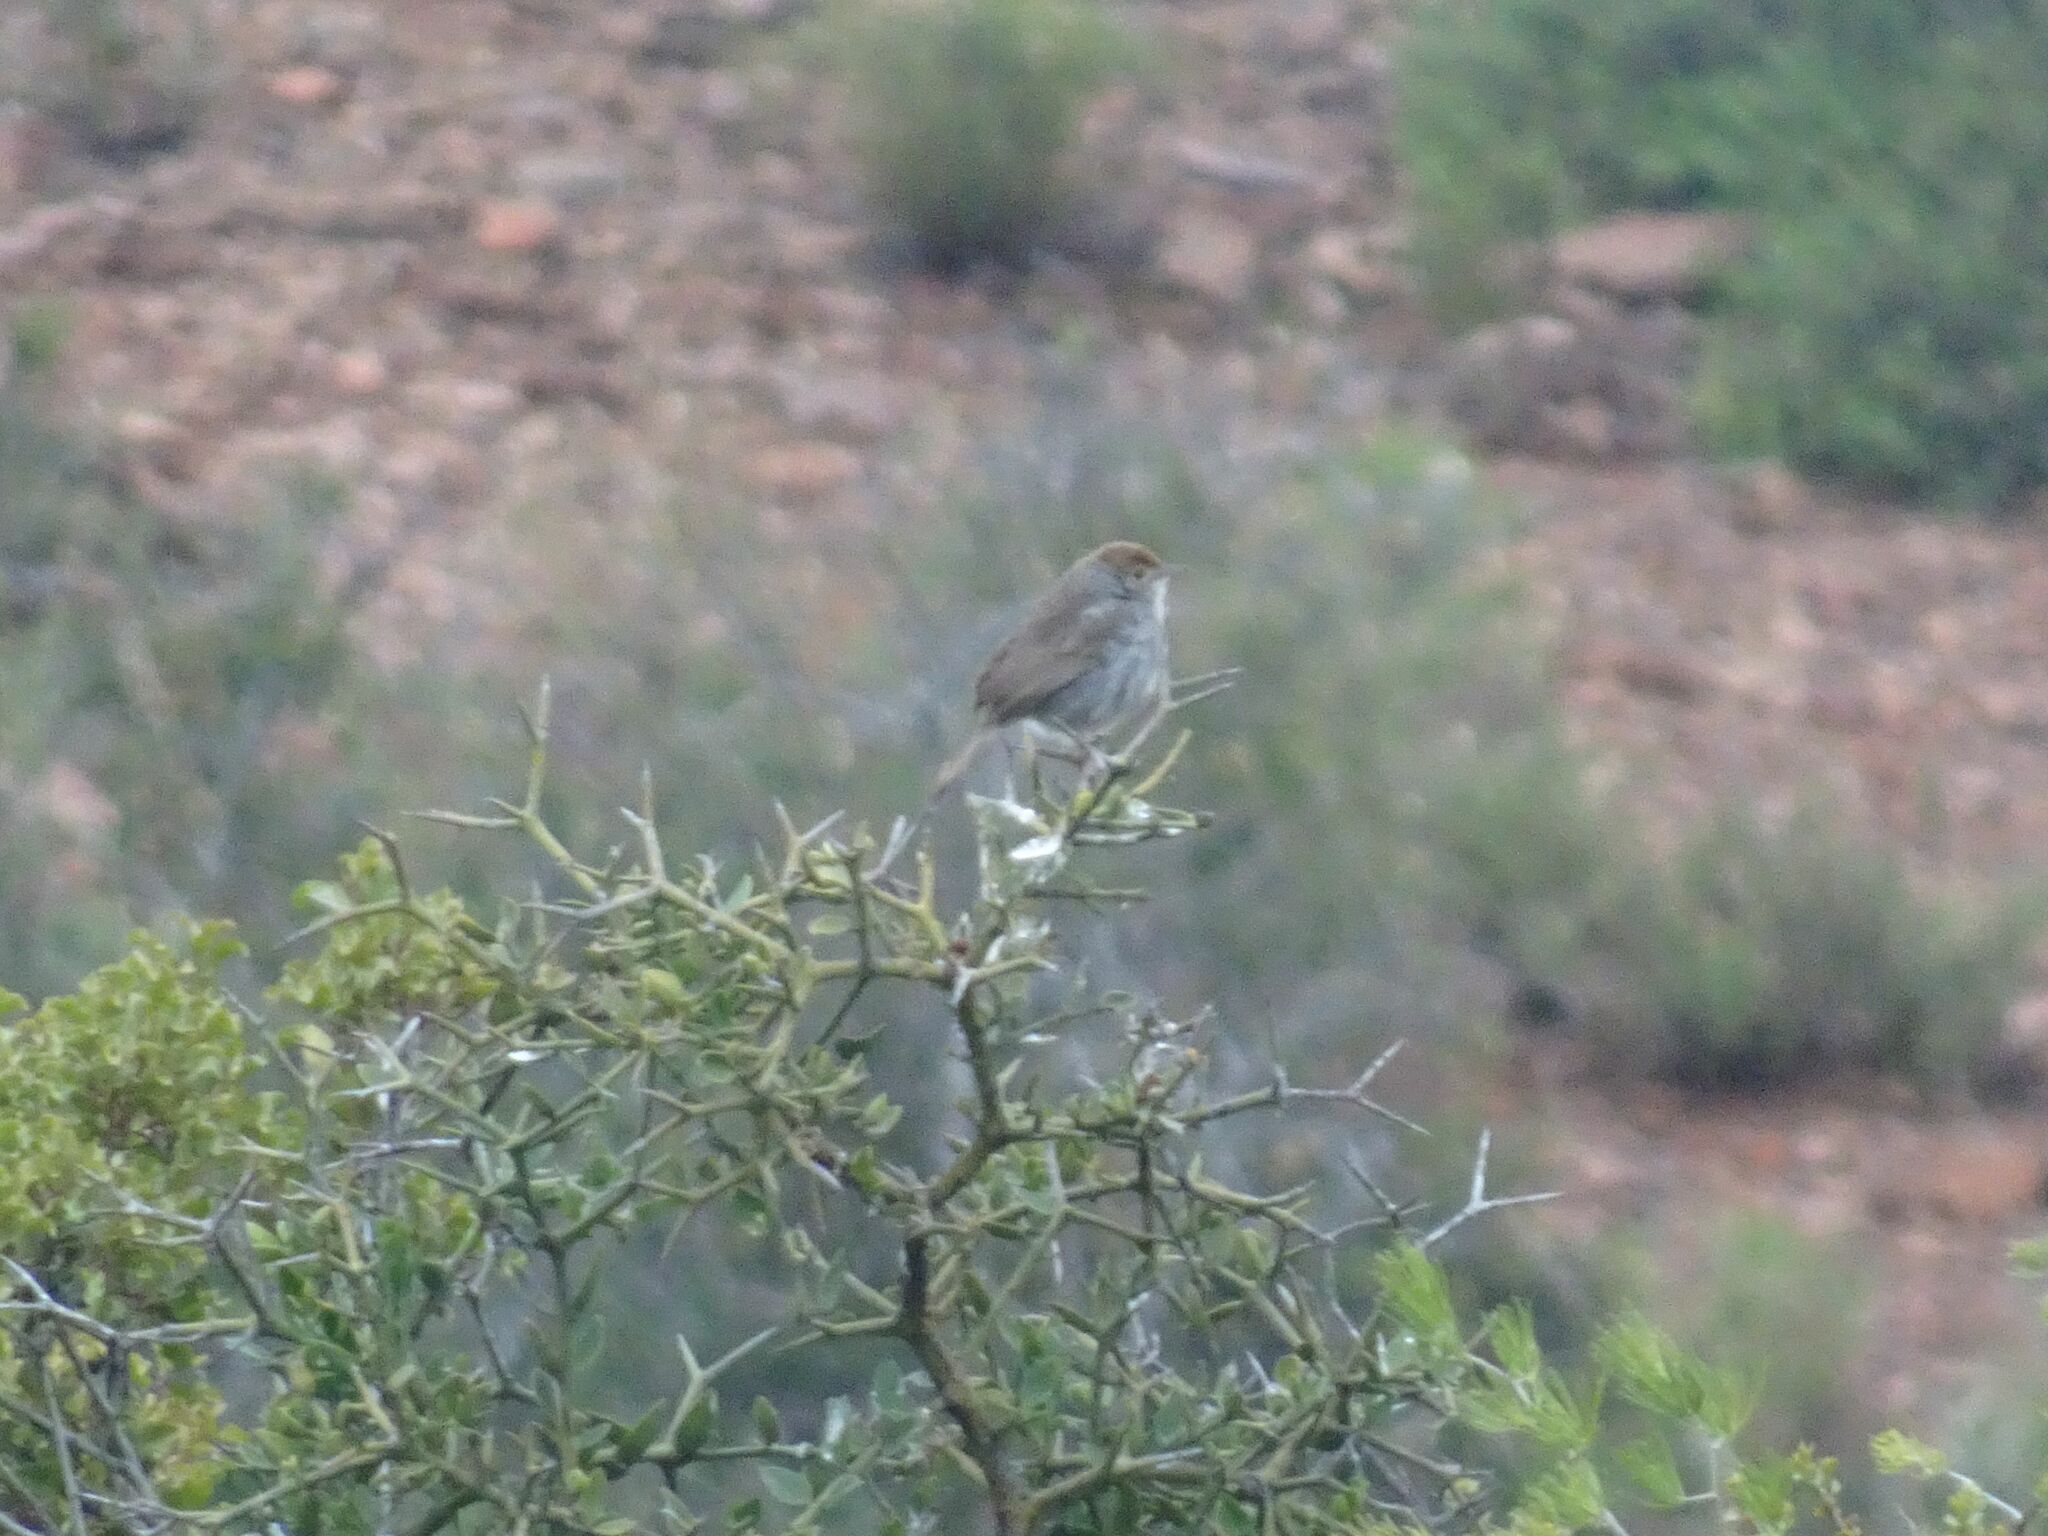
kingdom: Animalia
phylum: Chordata
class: Aves
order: Passeriformes
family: Cisticolidae
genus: Cisticola
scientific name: Cisticola fulvicapilla
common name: Neddicky
